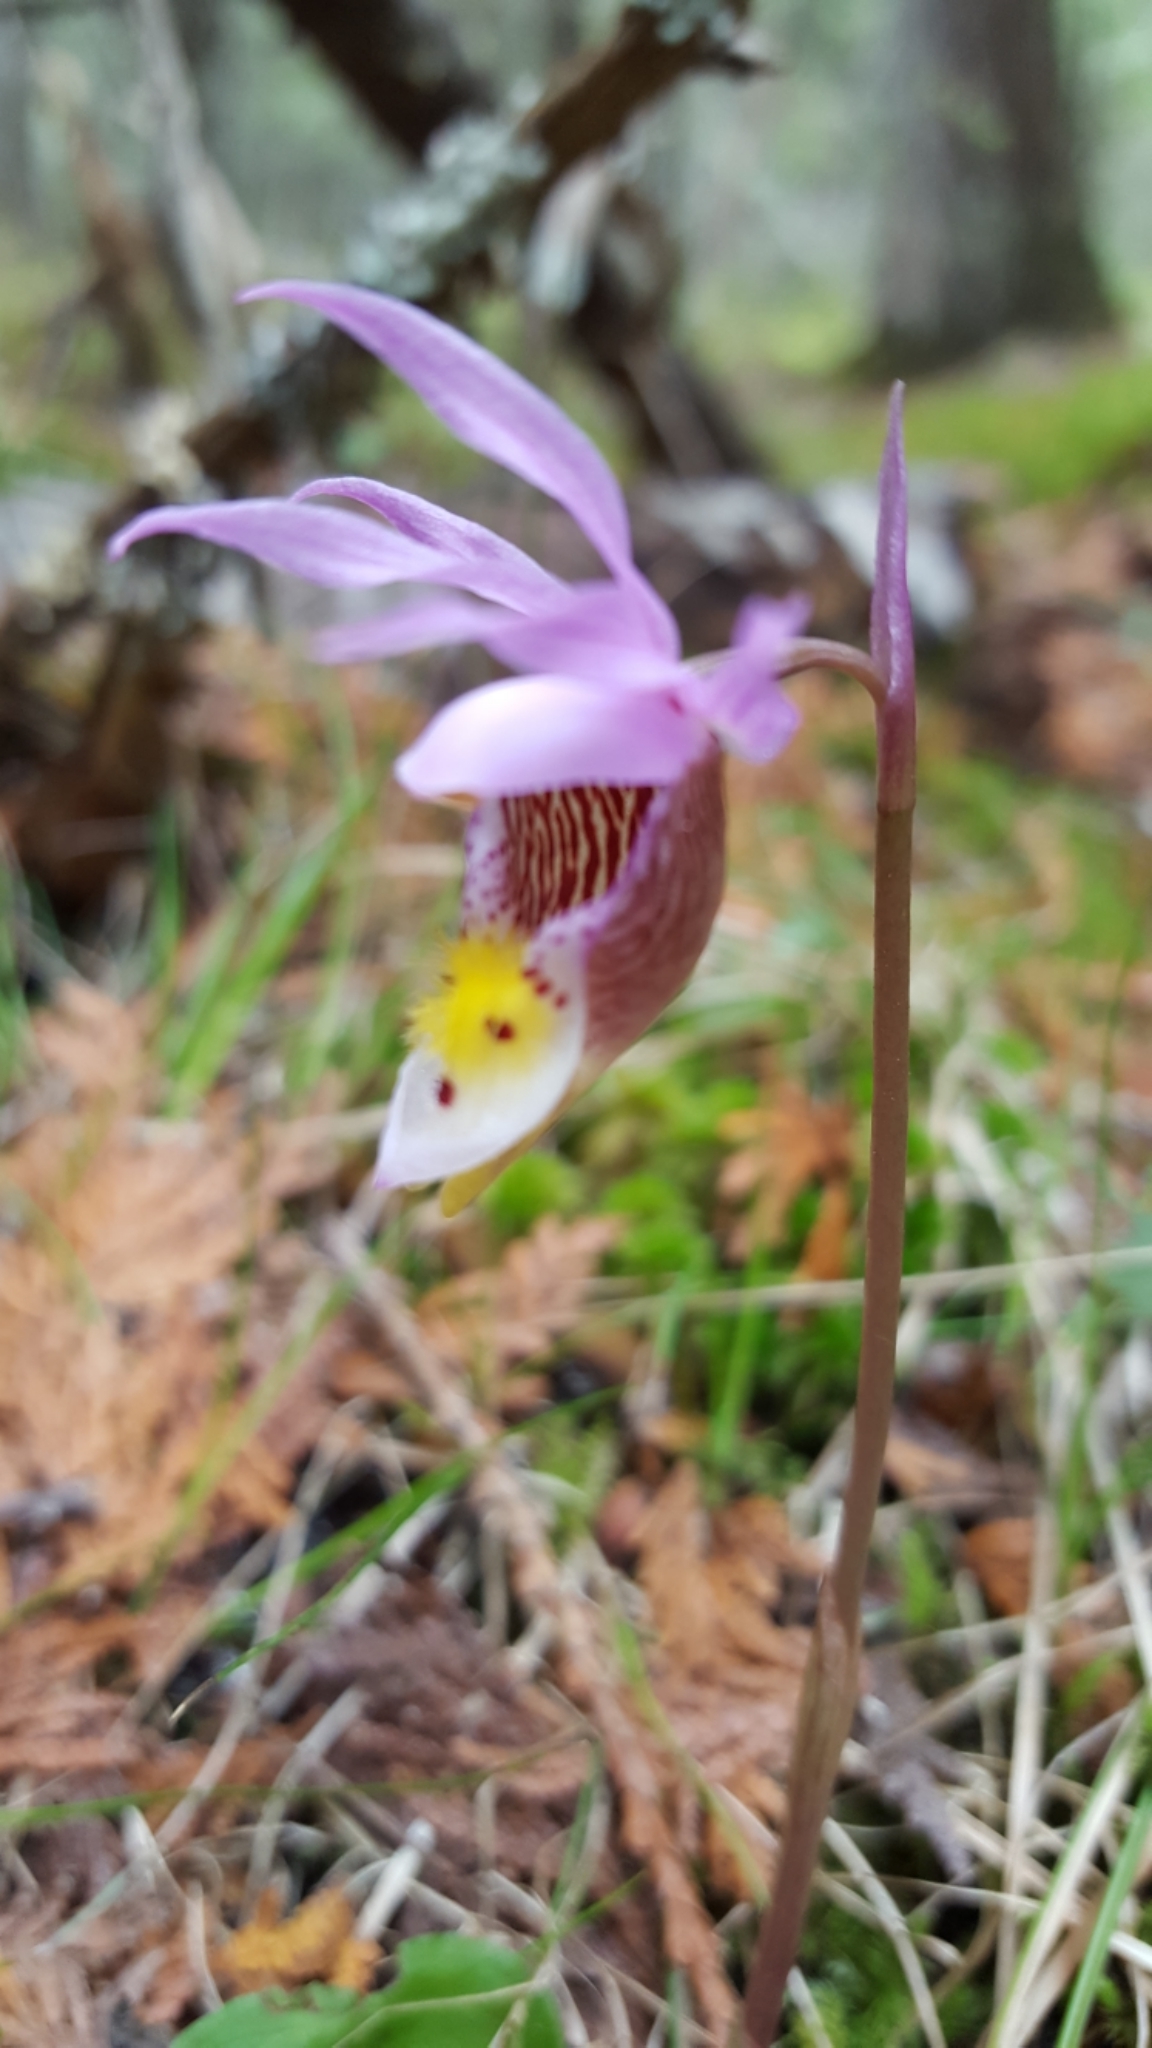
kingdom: Plantae
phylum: Tracheophyta
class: Liliopsida
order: Asparagales
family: Orchidaceae
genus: Calypso
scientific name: Calypso bulbosa
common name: Calypso
